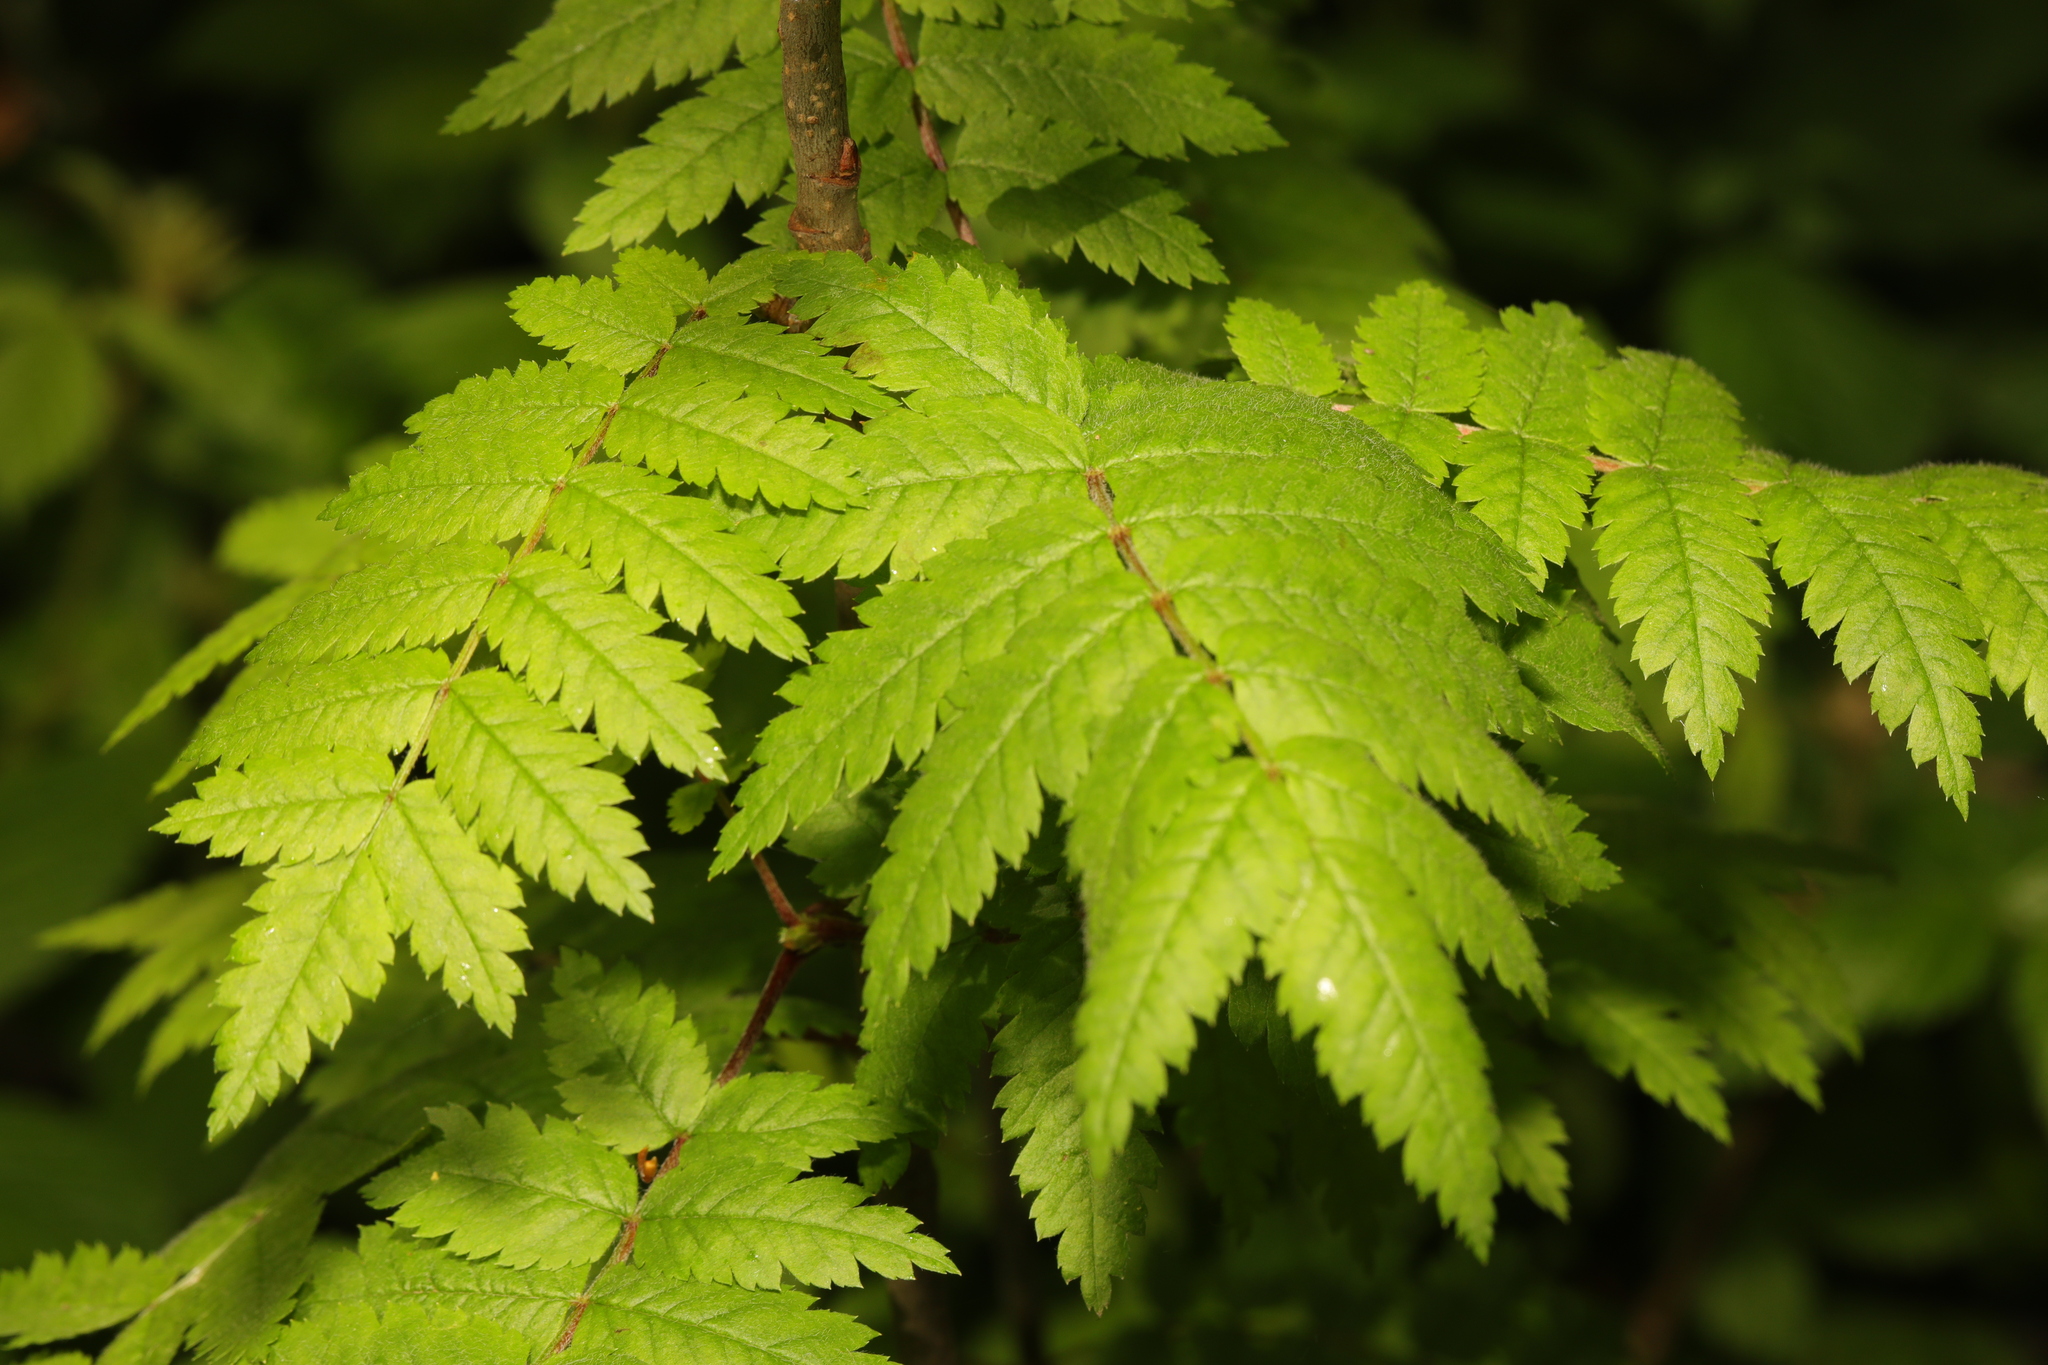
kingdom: Plantae
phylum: Tracheophyta
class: Magnoliopsida
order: Rosales
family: Rosaceae
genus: Sorbus
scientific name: Sorbus aucuparia
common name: Rowan
